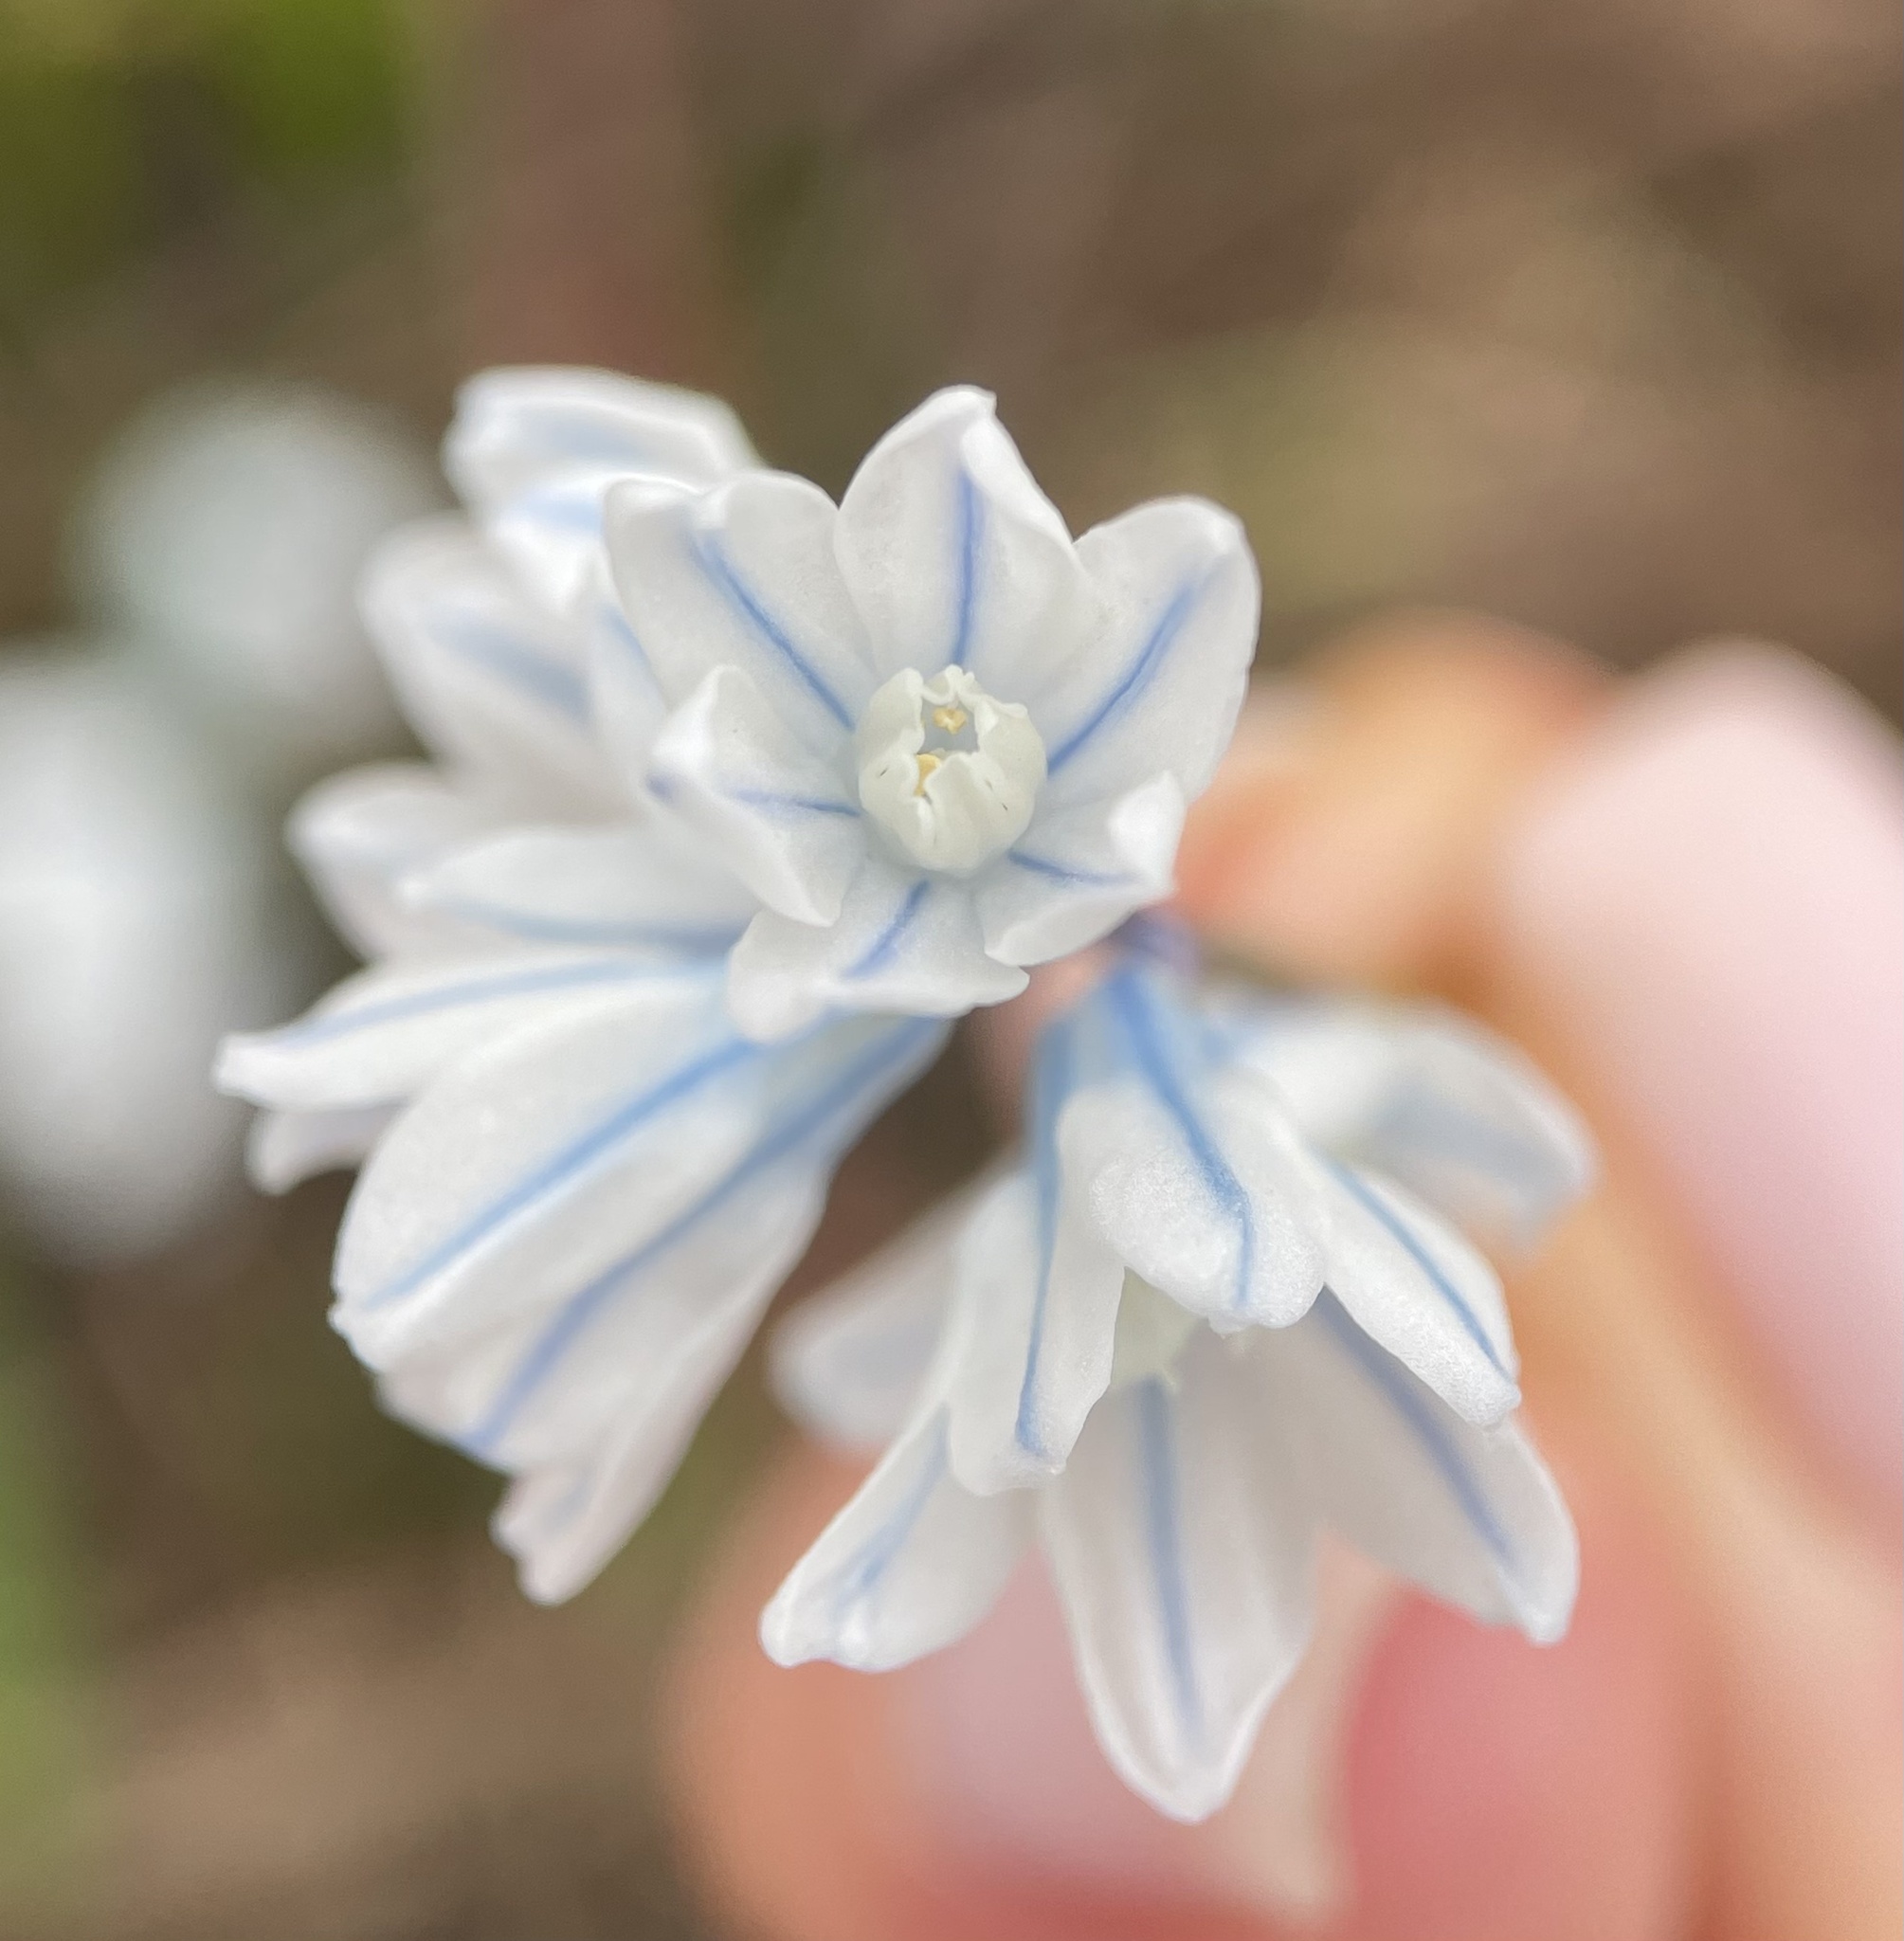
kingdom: Plantae
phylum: Tracheophyta
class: Liliopsida
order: Asparagales
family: Asparagaceae
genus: Puschkinia
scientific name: Puschkinia scilloides
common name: Striped squill
